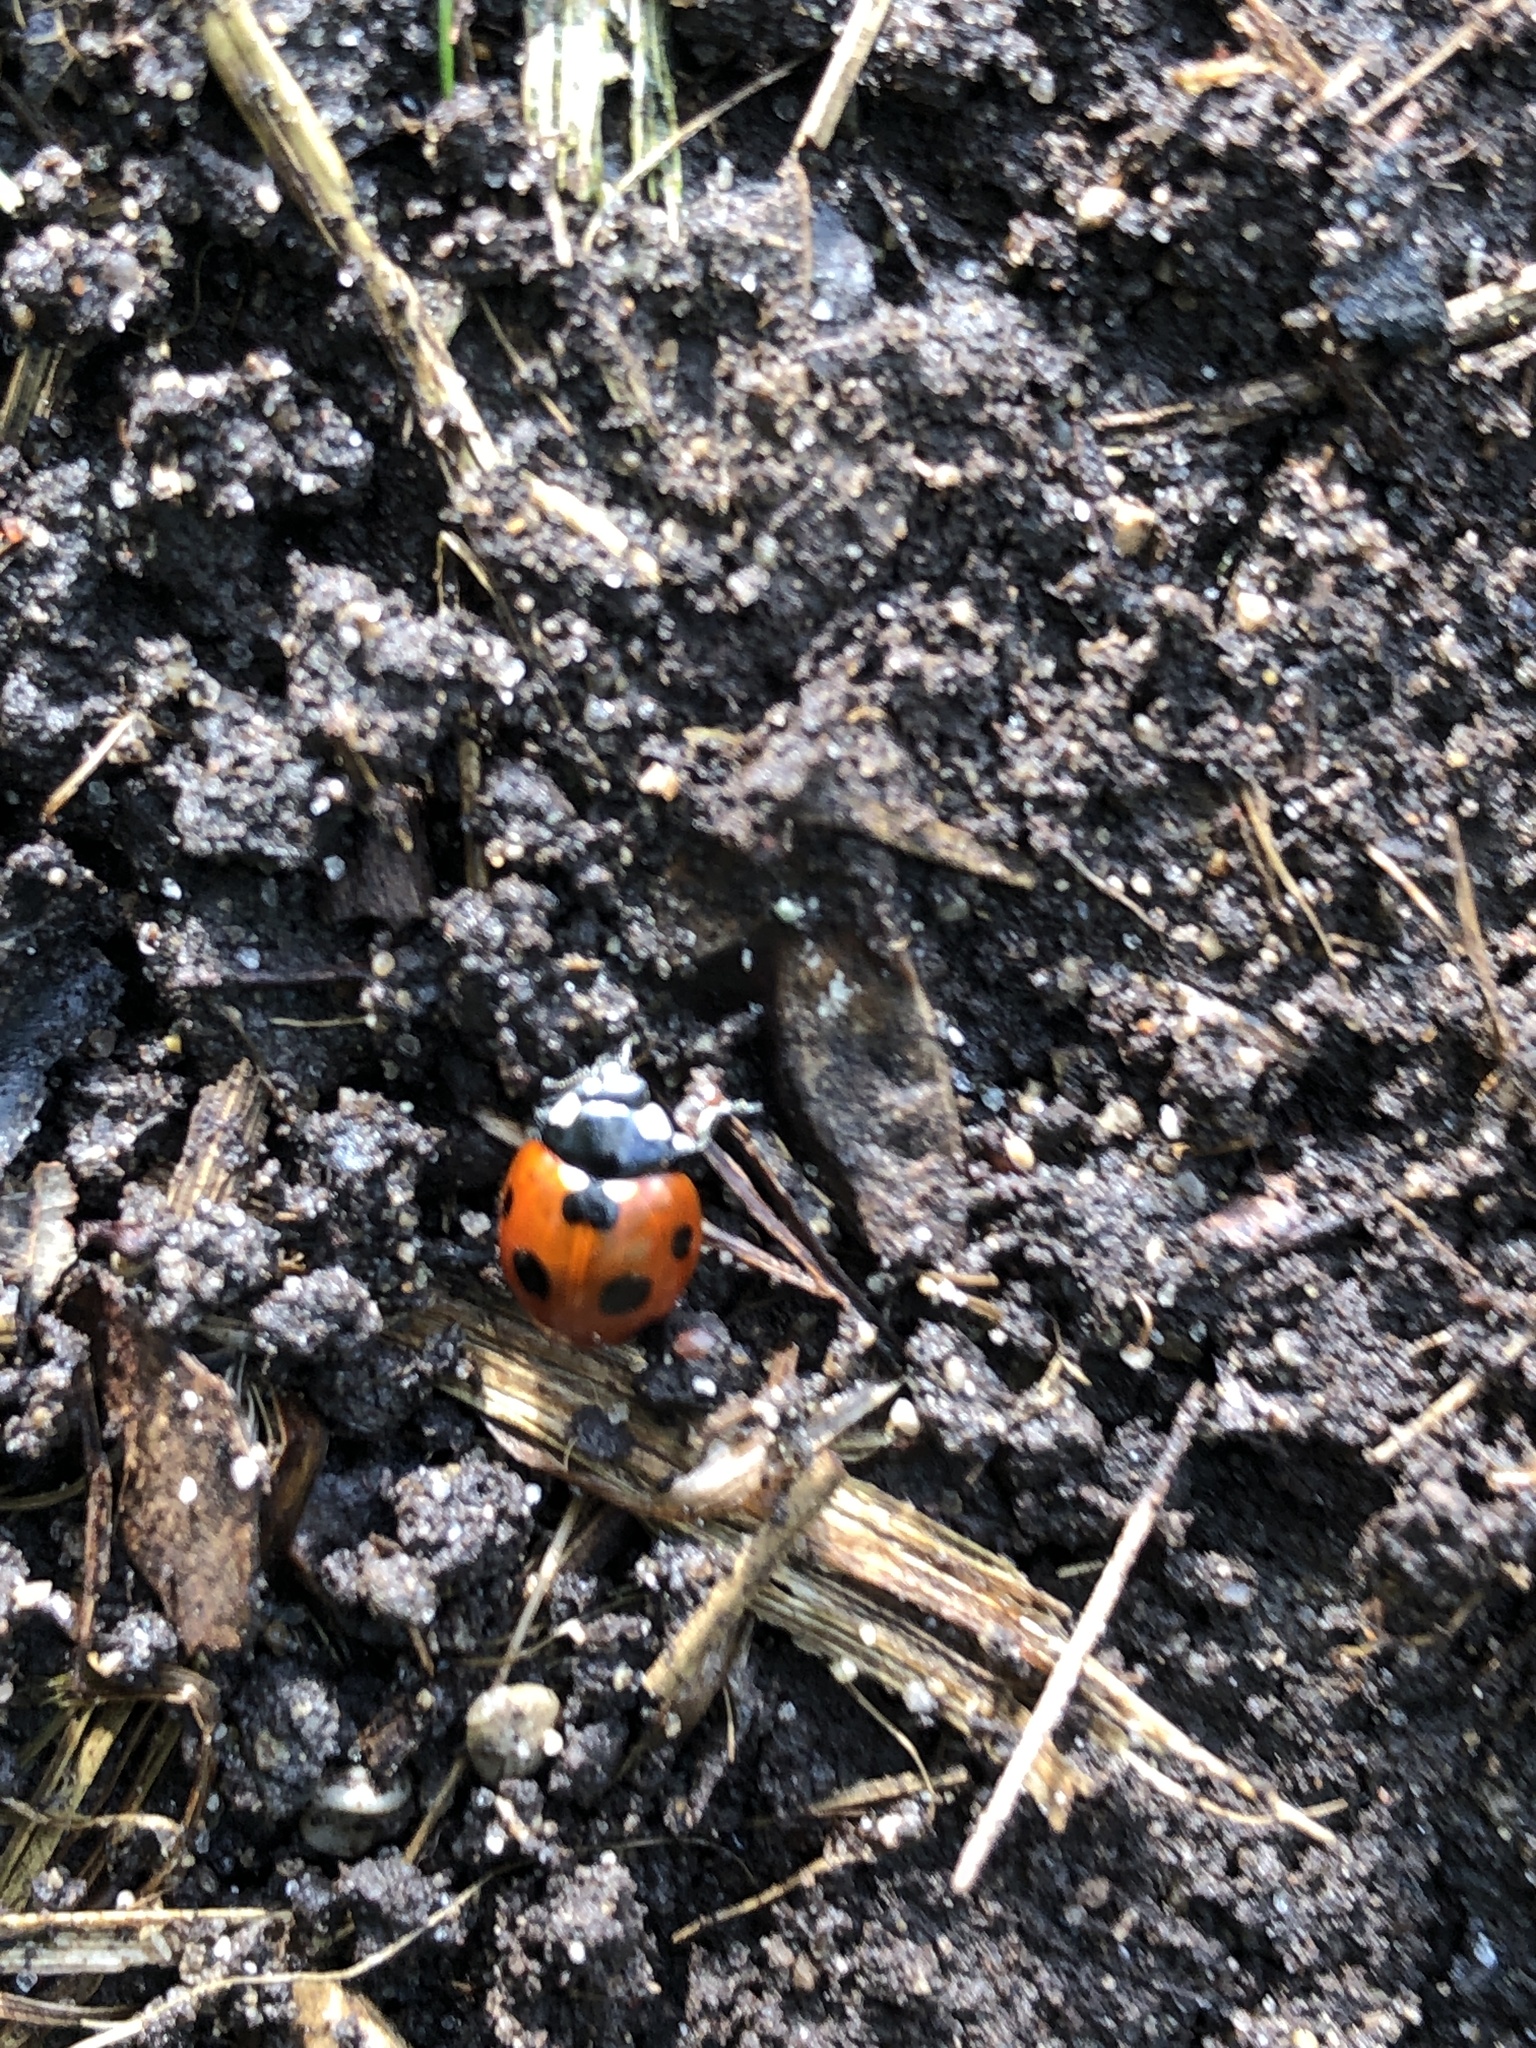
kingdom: Animalia
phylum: Arthropoda
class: Insecta
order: Coleoptera
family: Coccinellidae
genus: Coccinella
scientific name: Coccinella septempunctata
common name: Sevenspotted lady beetle
